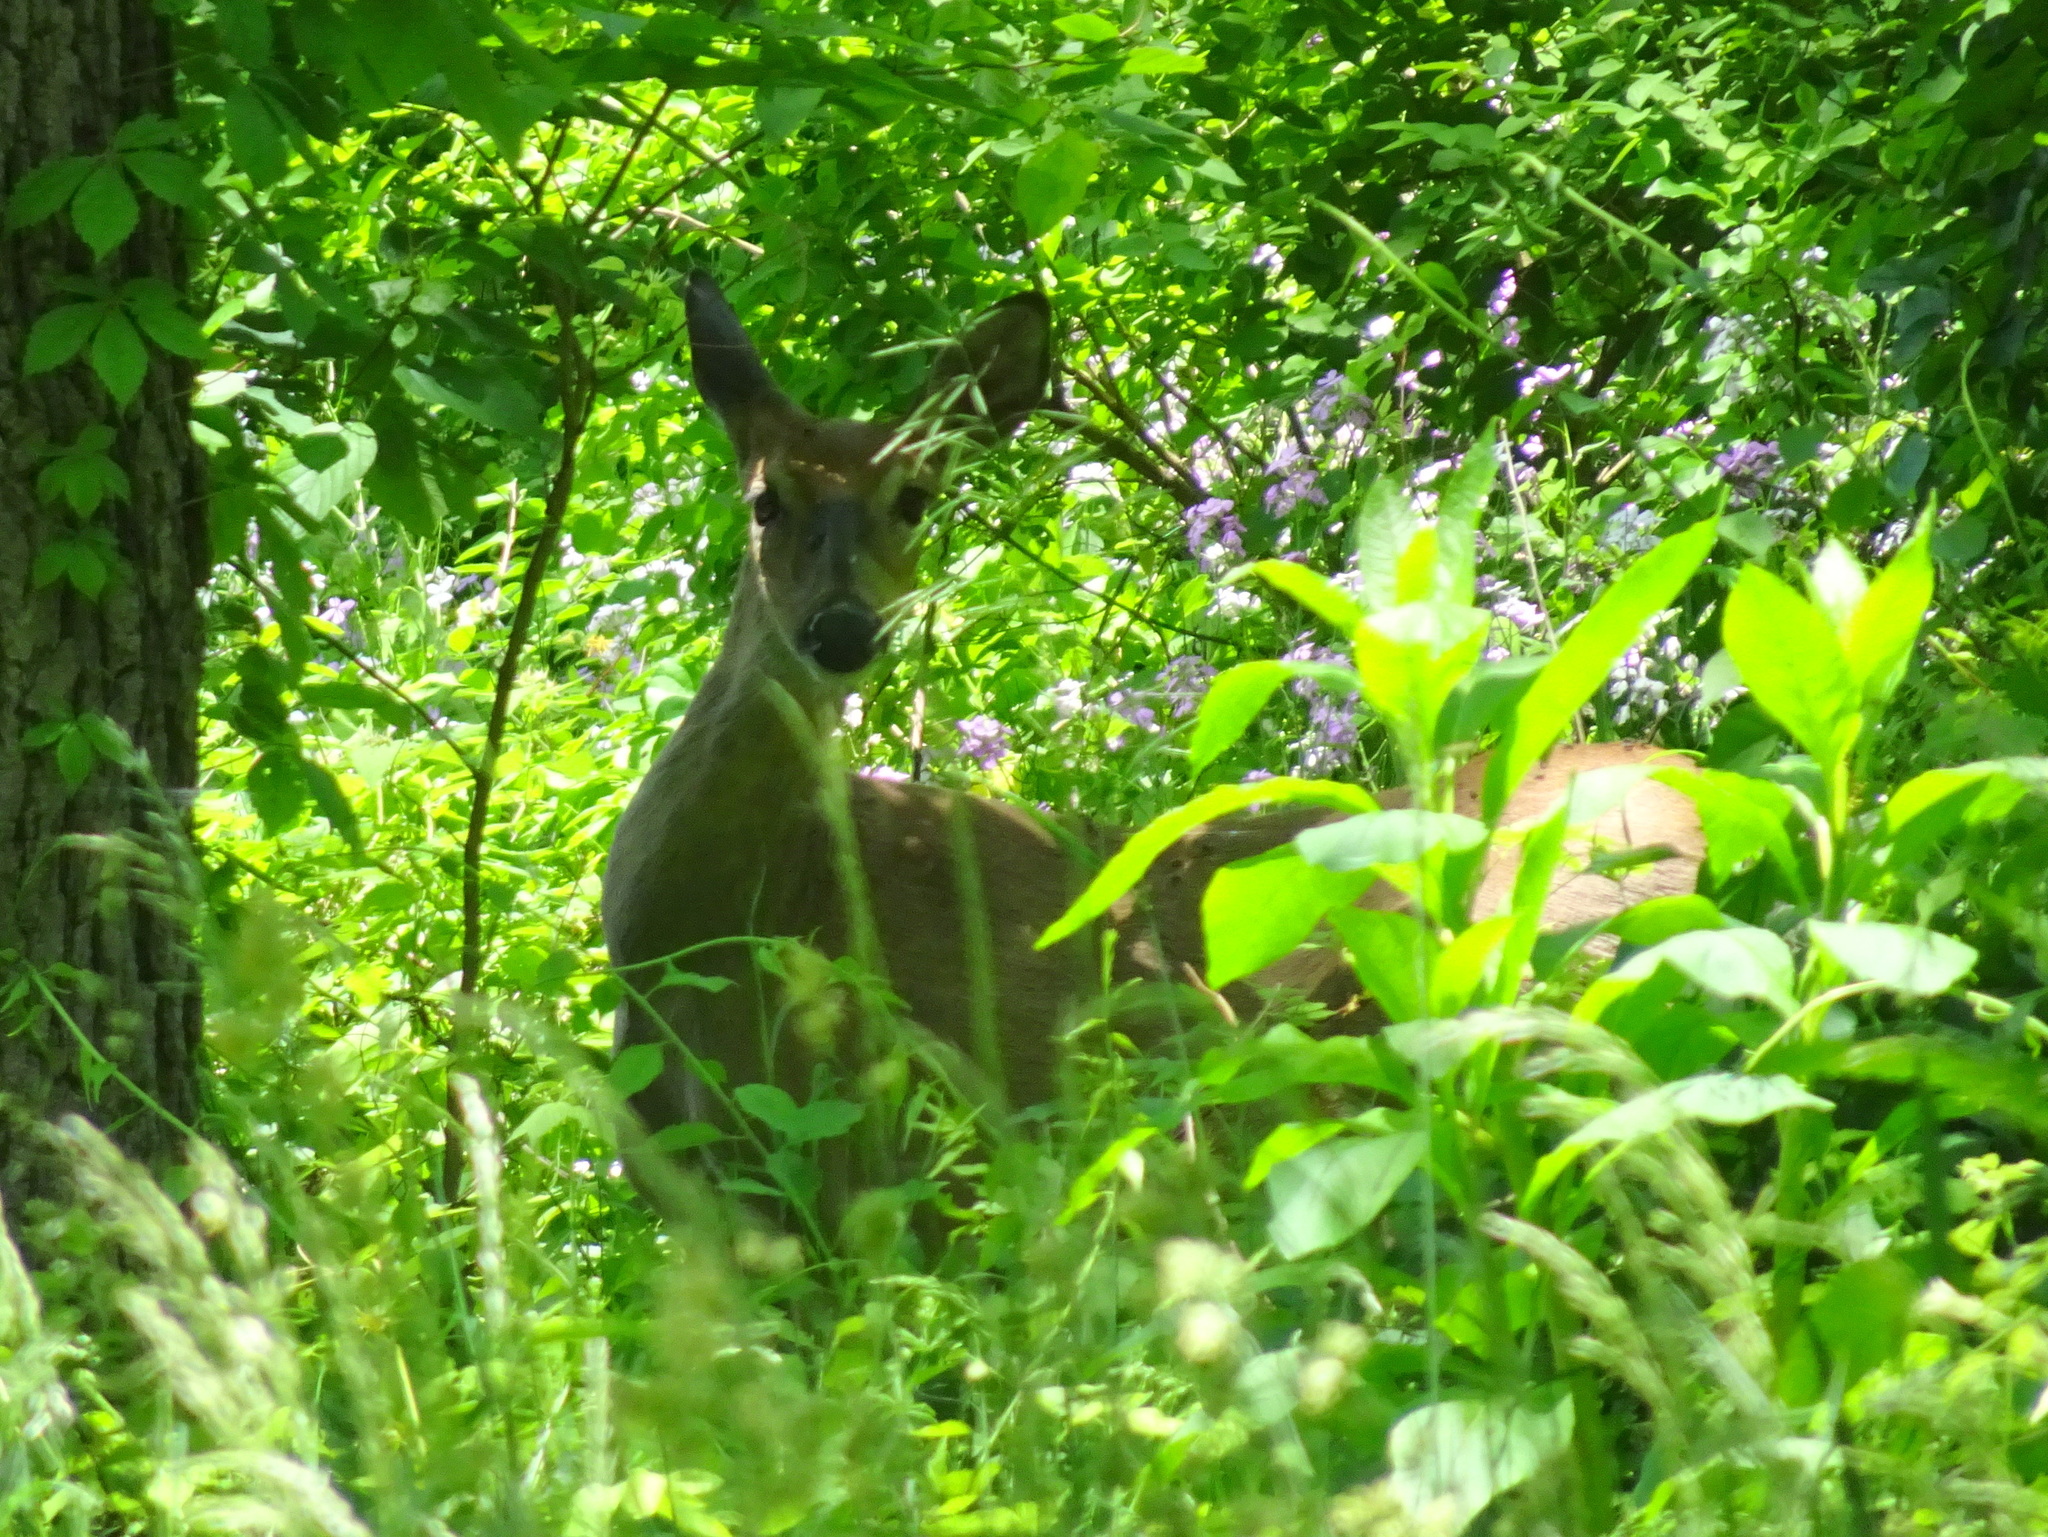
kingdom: Animalia
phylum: Chordata
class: Mammalia
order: Artiodactyla
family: Cervidae
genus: Odocoileus
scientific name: Odocoileus virginianus
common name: White-tailed deer
